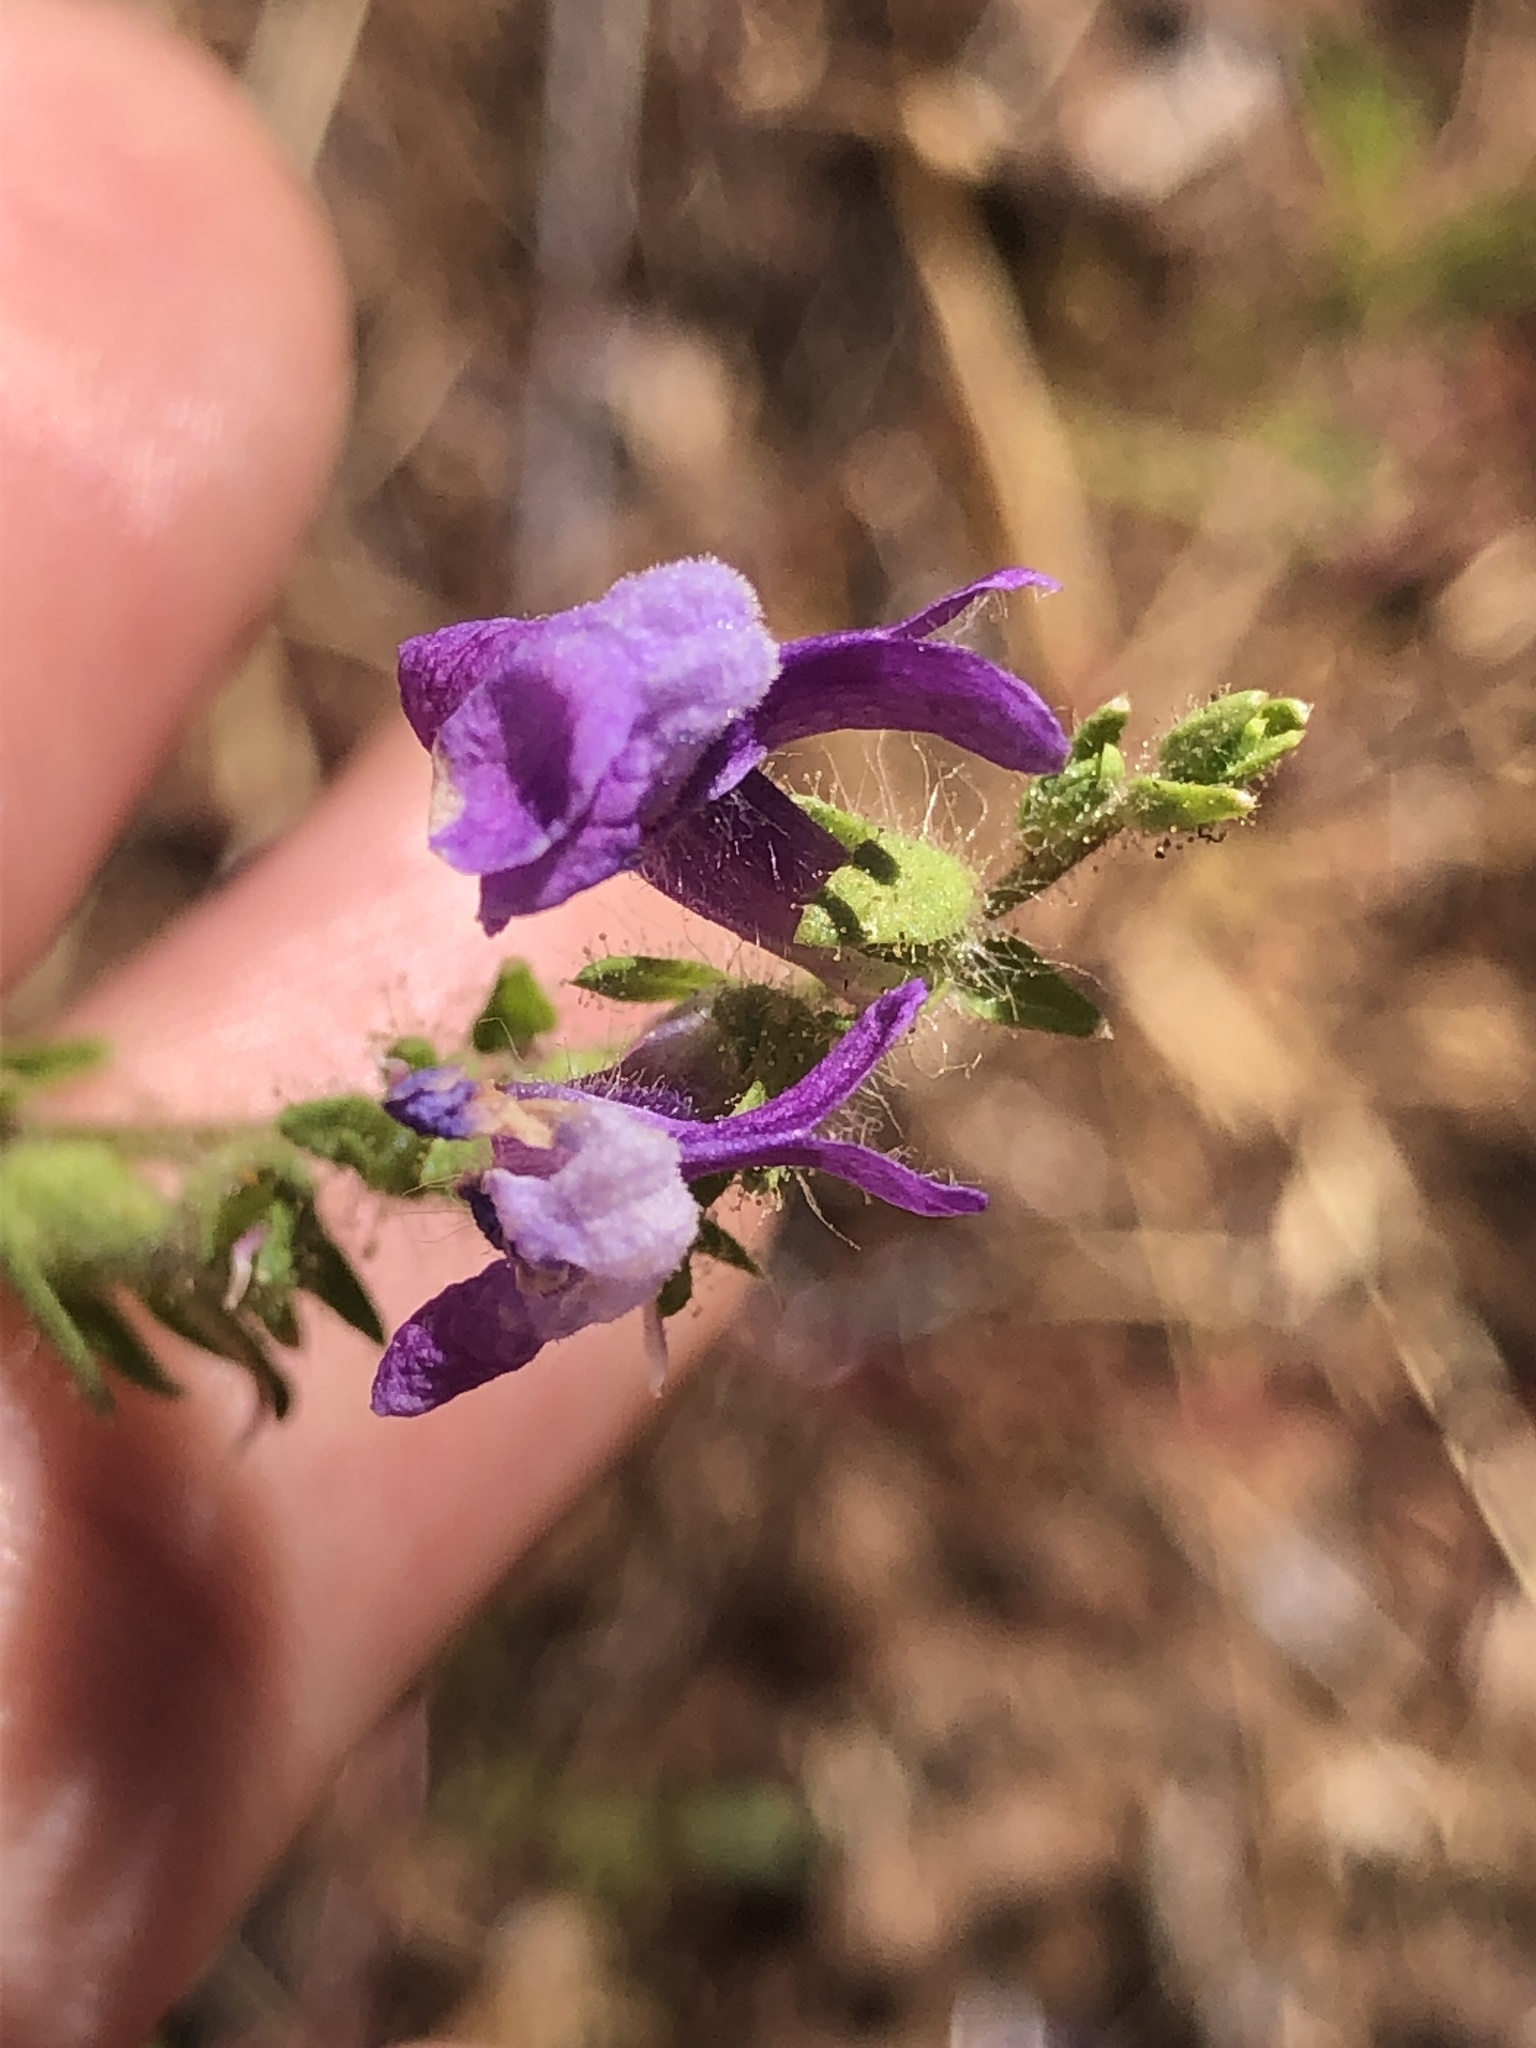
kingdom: Plantae
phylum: Tracheophyta
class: Magnoliopsida
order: Lamiales
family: Plantaginaceae
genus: Sairocarpus
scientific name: Sairocarpus vexillocalyculatus
